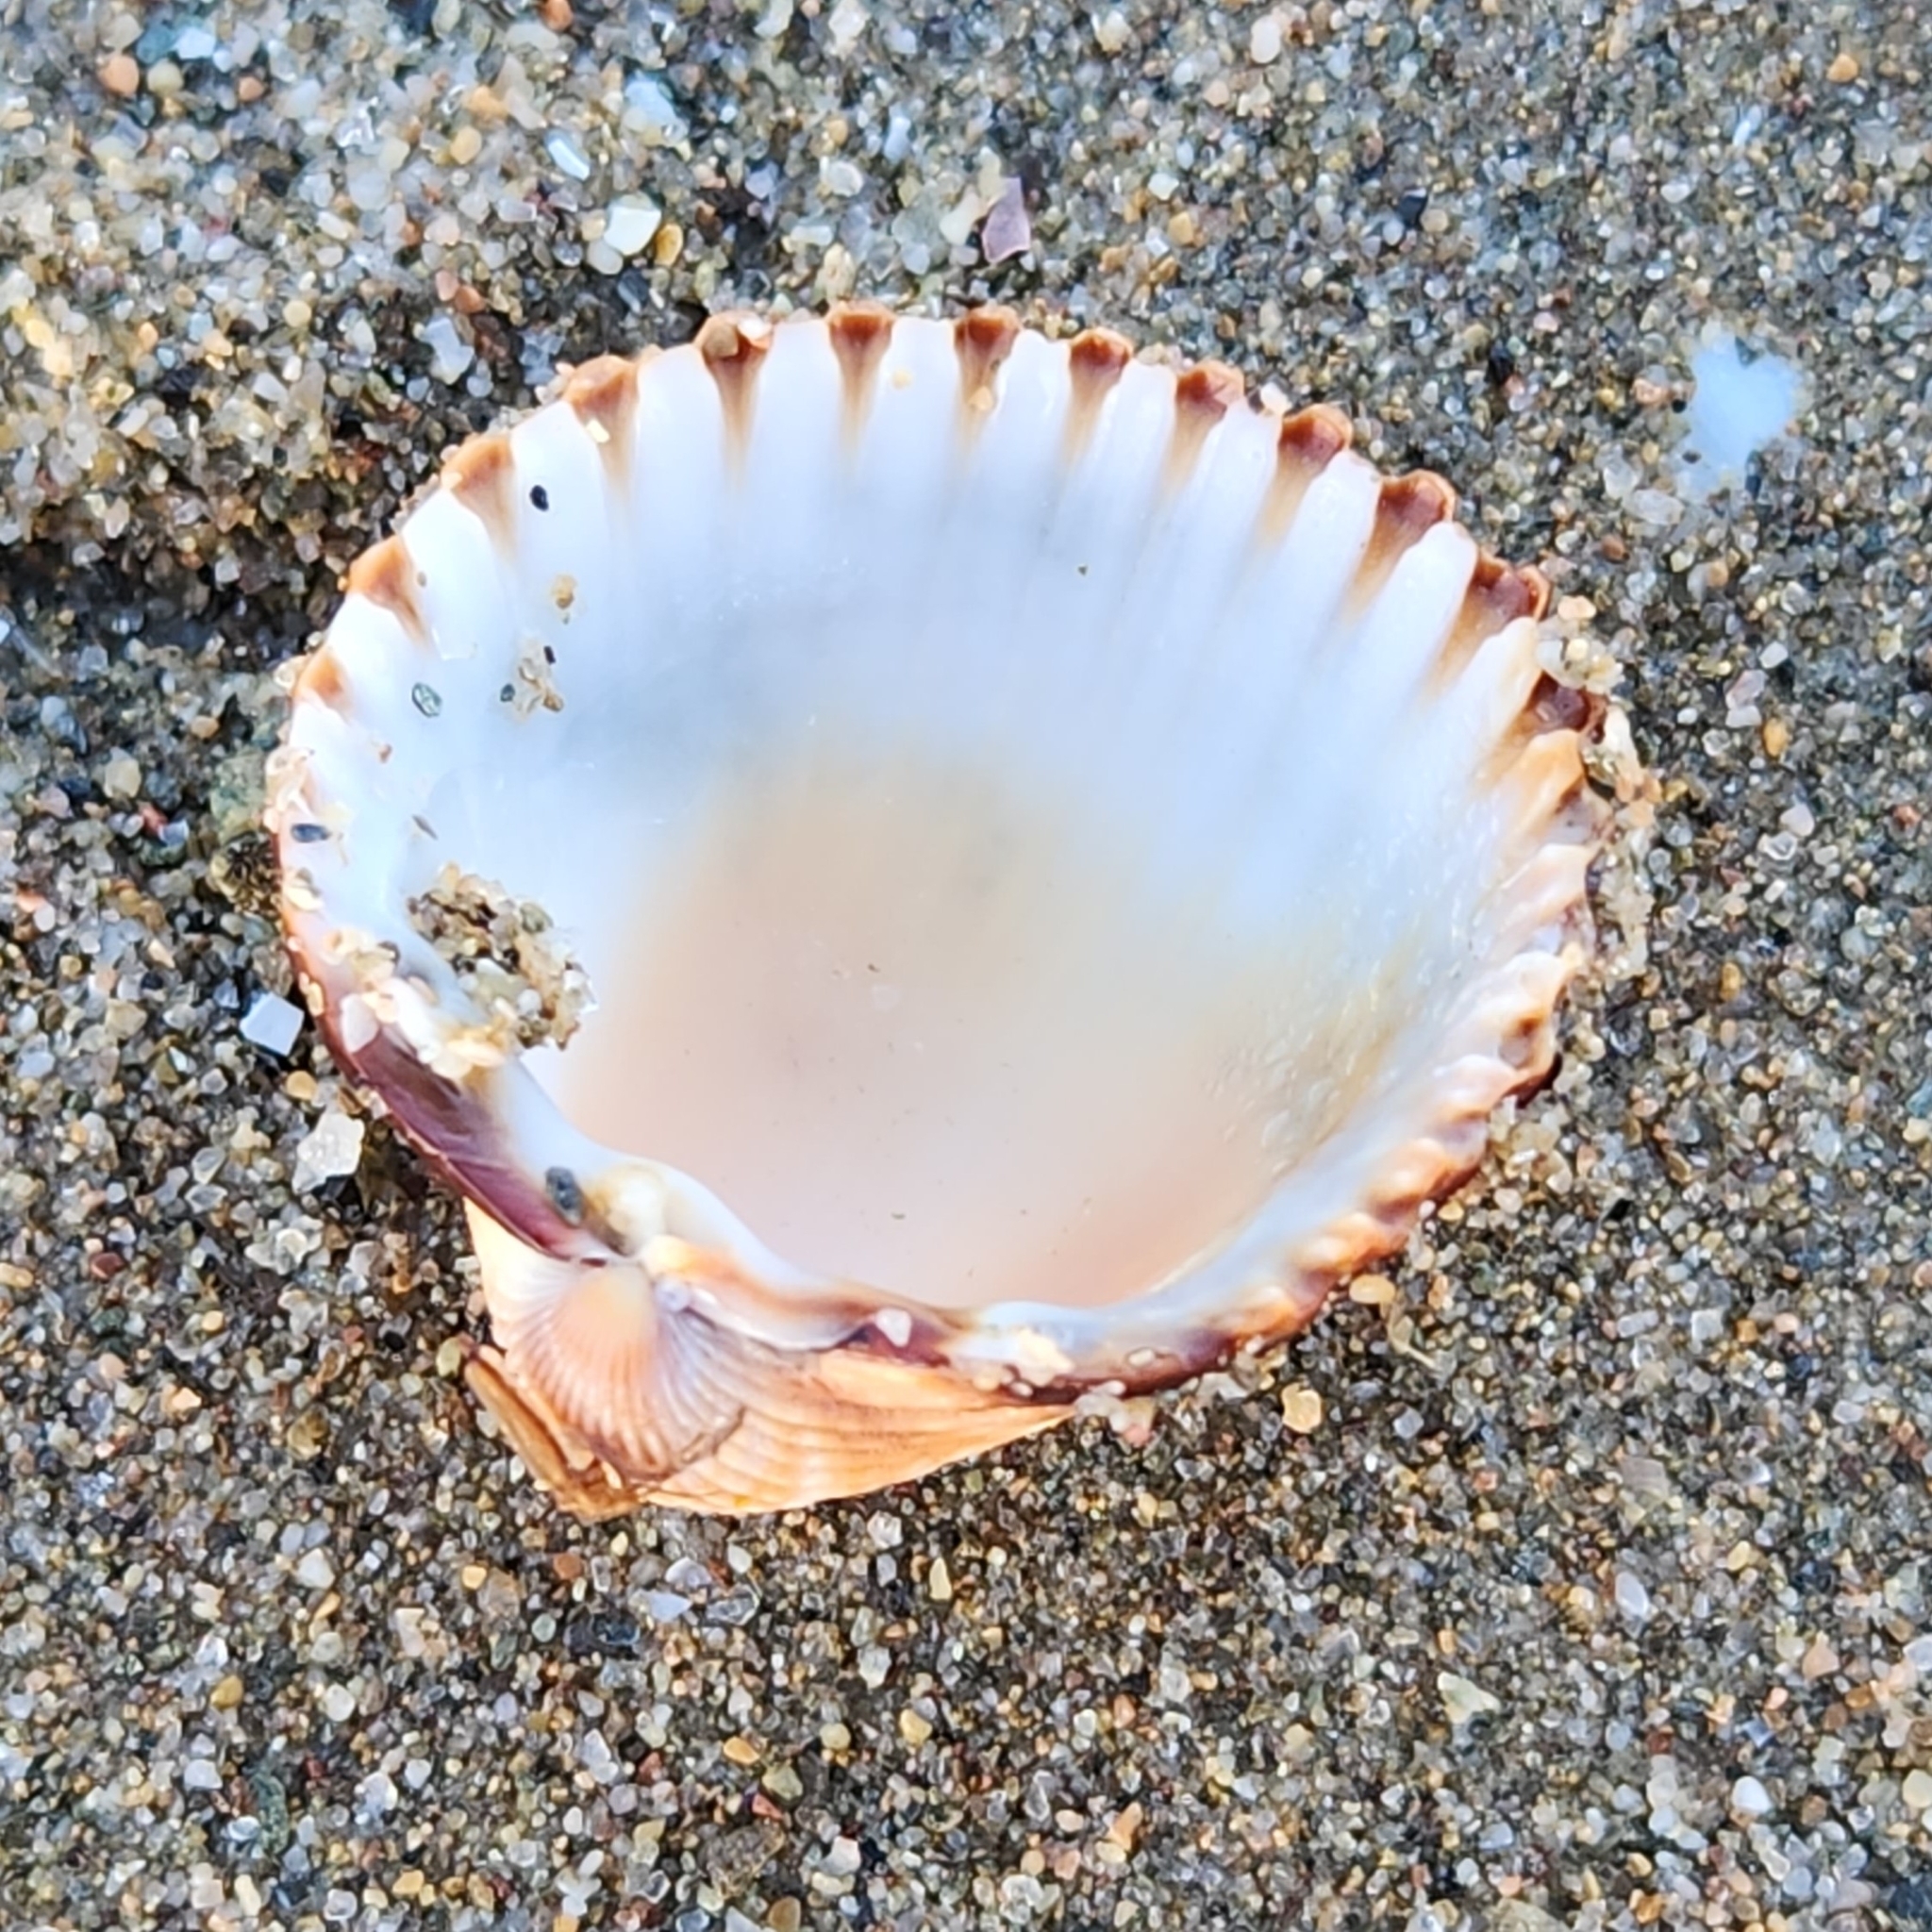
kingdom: Animalia
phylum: Mollusca
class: Bivalvia
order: Cardiida
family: Cardiidae
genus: Acanthocardia
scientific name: Acanthocardia tuberculata
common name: Rough cockle
